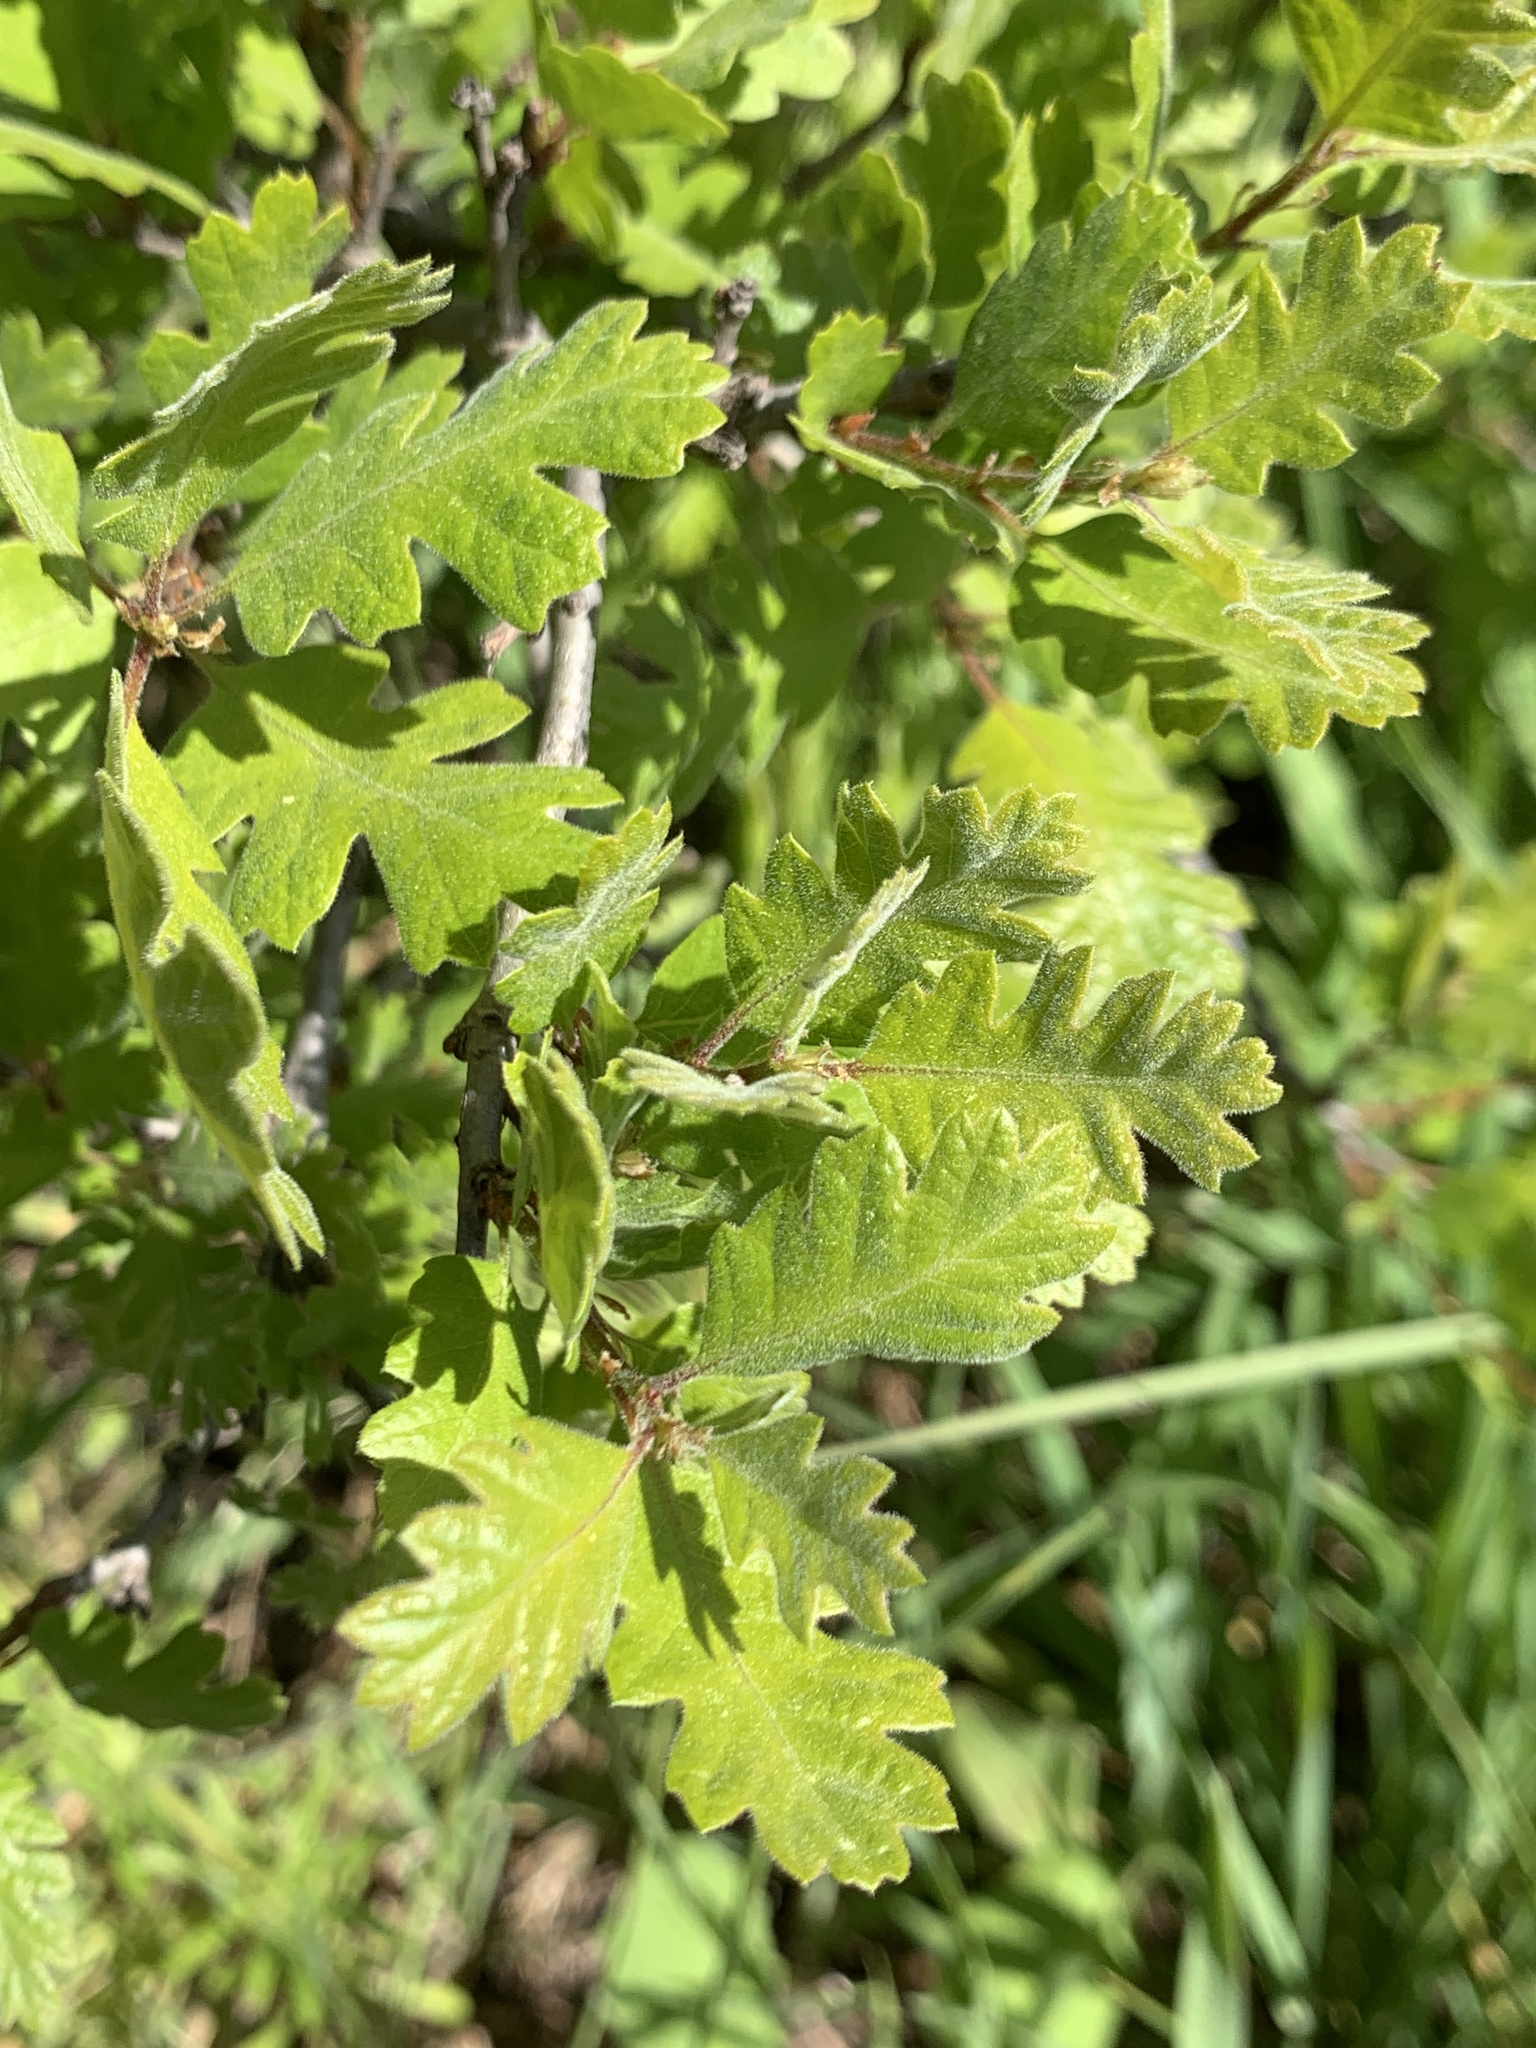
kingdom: Plantae
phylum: Tracheophyta
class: Magnoliopsida
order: Fagales
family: Fagaceae
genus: Quercus
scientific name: Quercus lobata
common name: Valley oak
